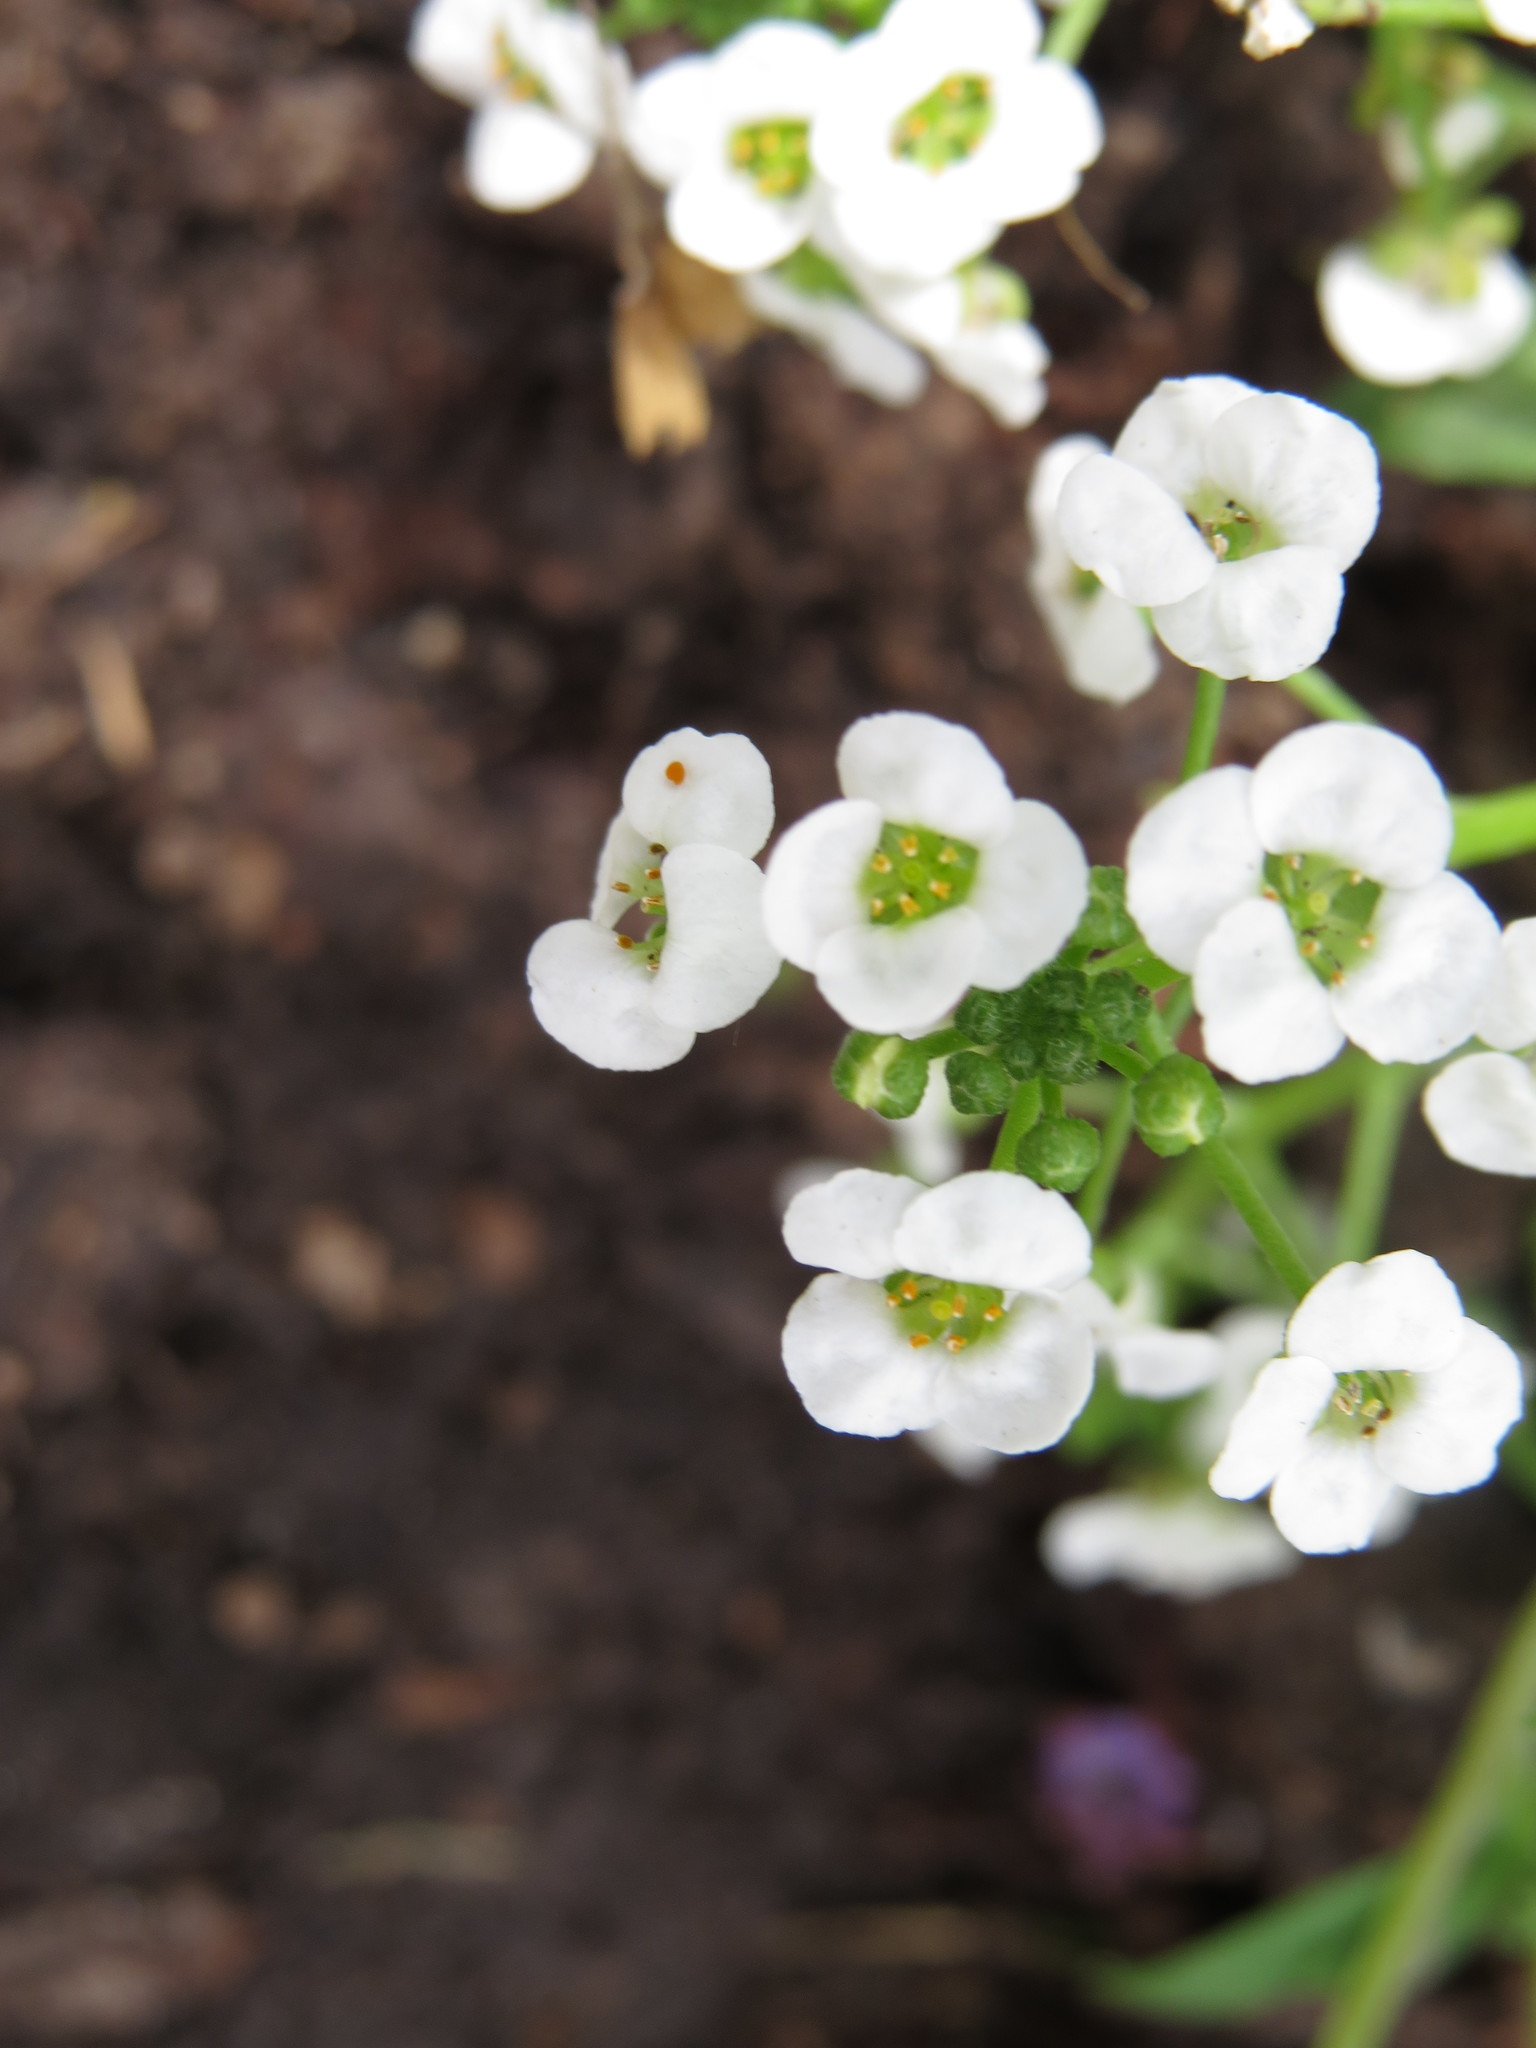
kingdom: Plantae
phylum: Tracheophyta
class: Magnoliopsida
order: Brassicales
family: Brassicaceae
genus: Lobularia
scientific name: Lobularia maritima
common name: Sweet alison
